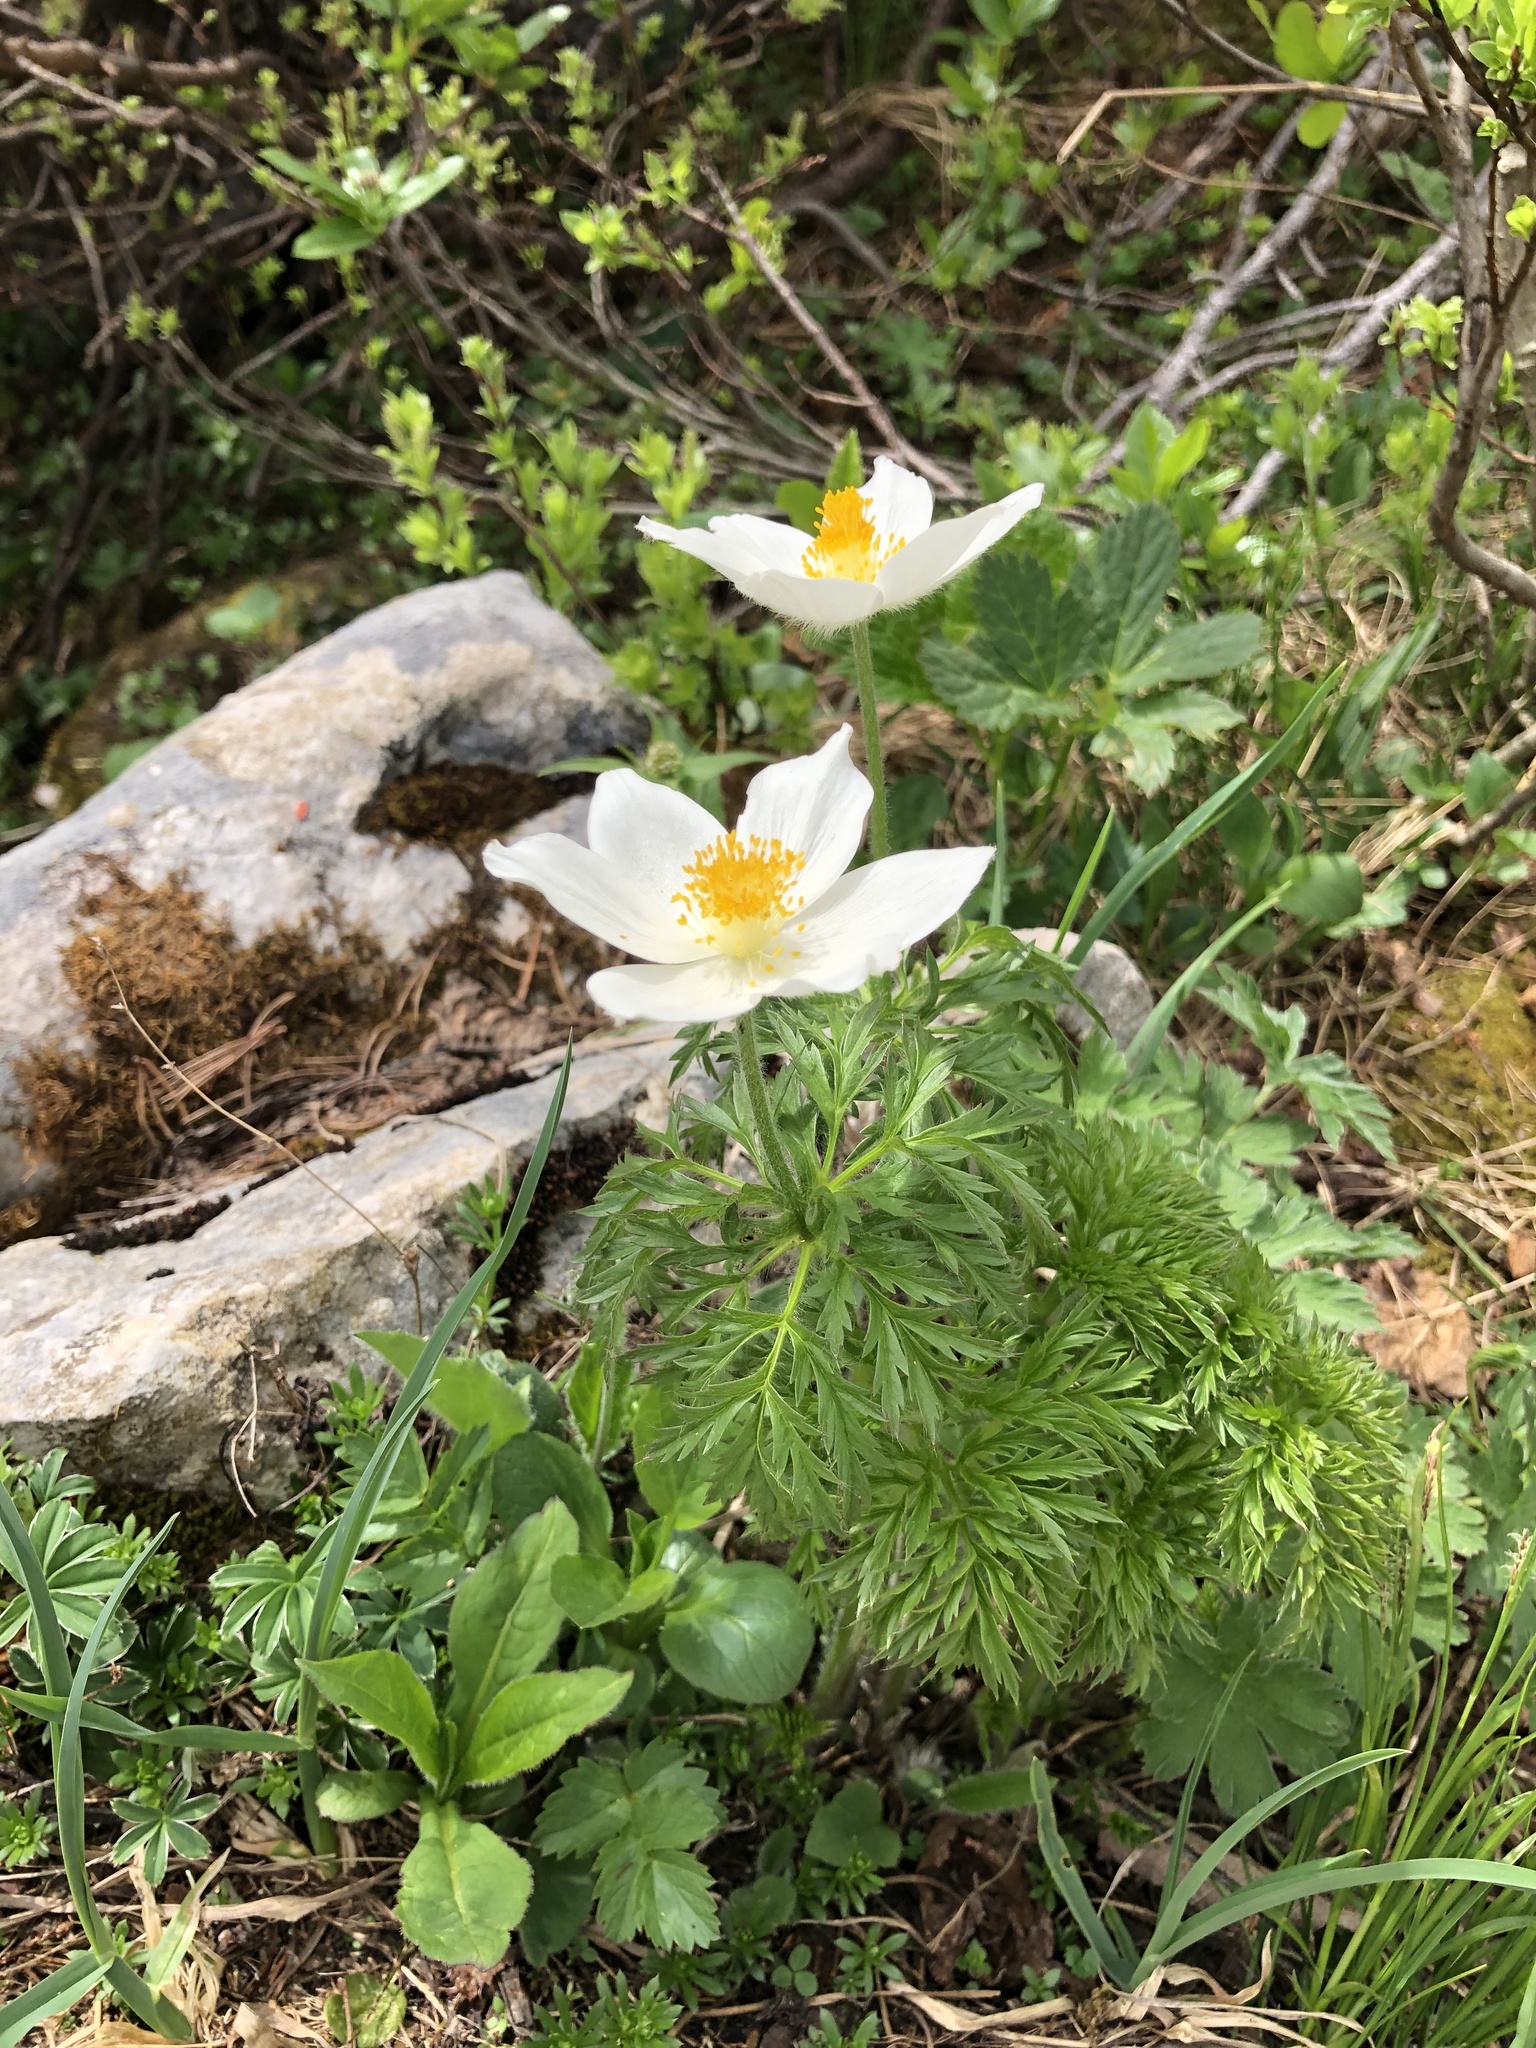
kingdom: Plantae
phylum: Tracheophyta
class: Magnoliopsida
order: Ranunculales
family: Ranunculaceae
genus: Pulsatilla
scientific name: Pulsatilla alpina
